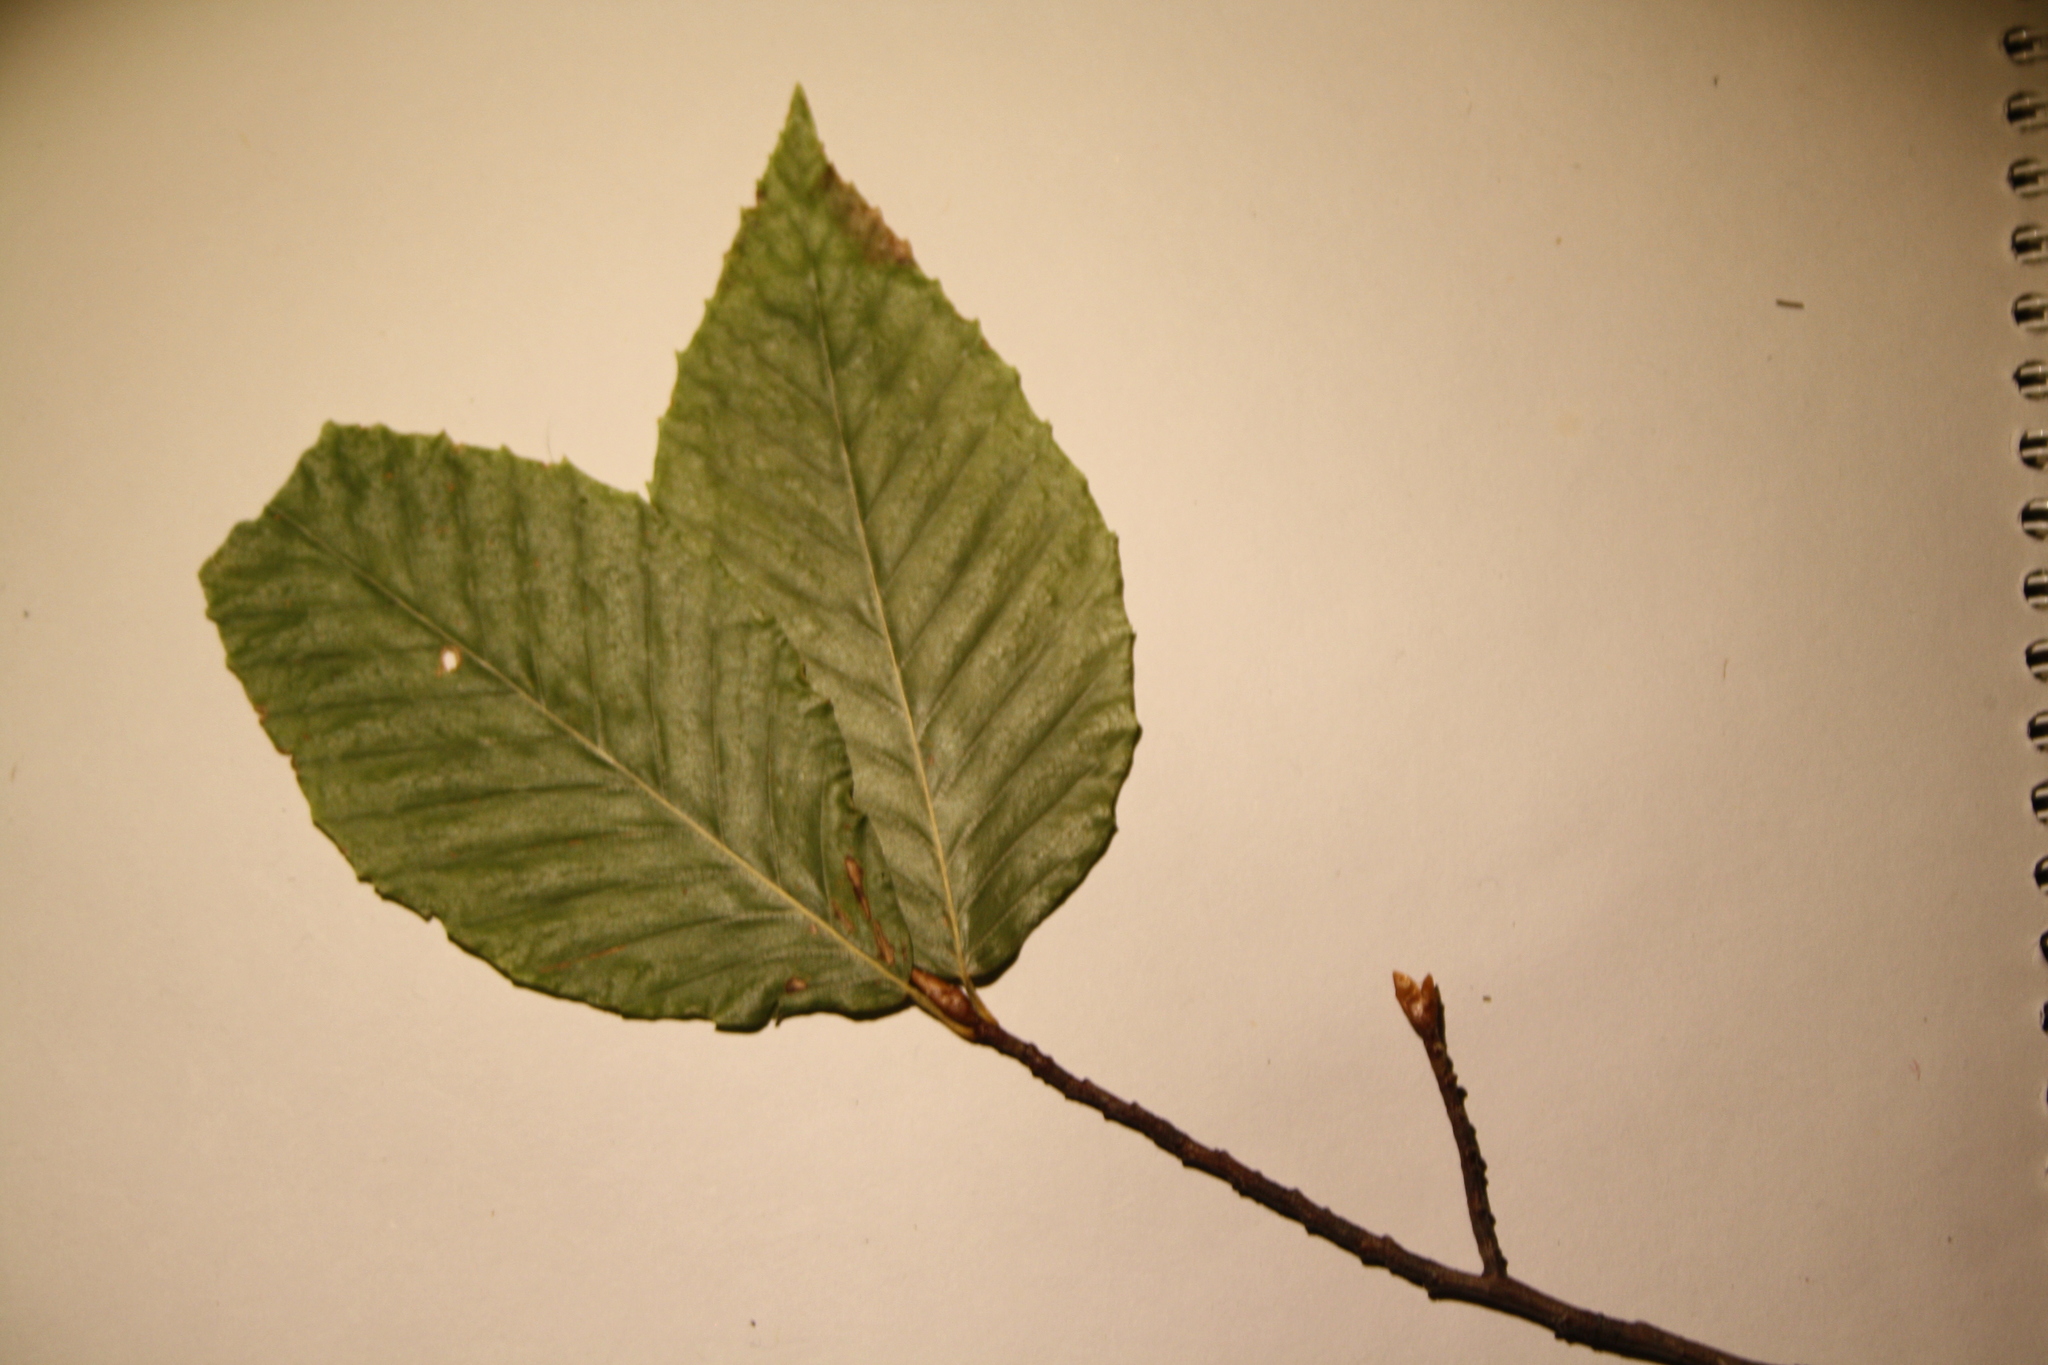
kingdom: Plantae
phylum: Tracheophyta
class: Magnoliopsida
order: Fagales
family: Fagaceae
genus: Fagus
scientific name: Fagus grandifolia
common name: American beech
